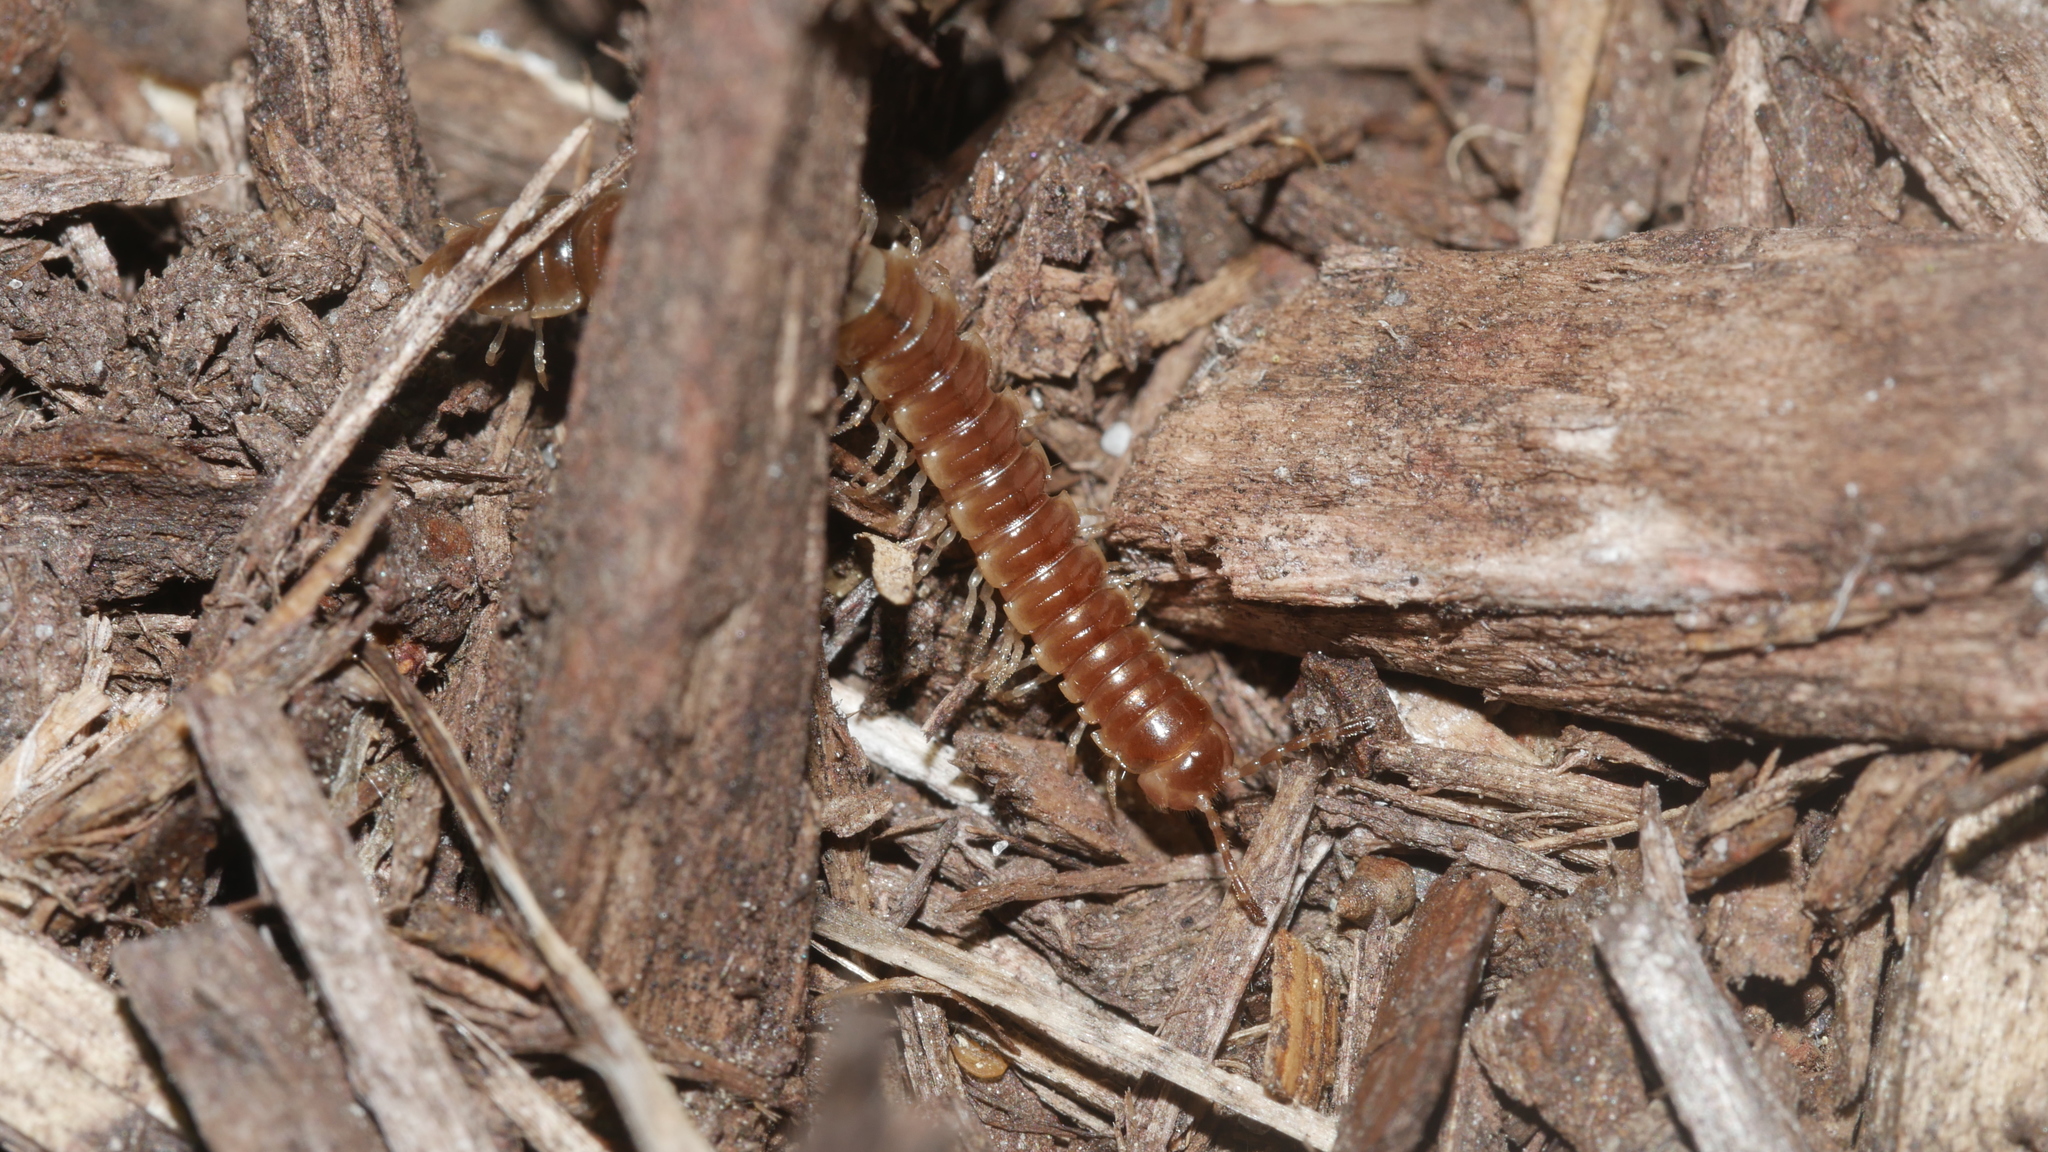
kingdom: Animalia
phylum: Arthropoda
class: Diplopoda
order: Polydesmida
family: Paradoxosomatidae
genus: Oxidus
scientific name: Oxidus gracilis
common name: Greenhouse millipede
